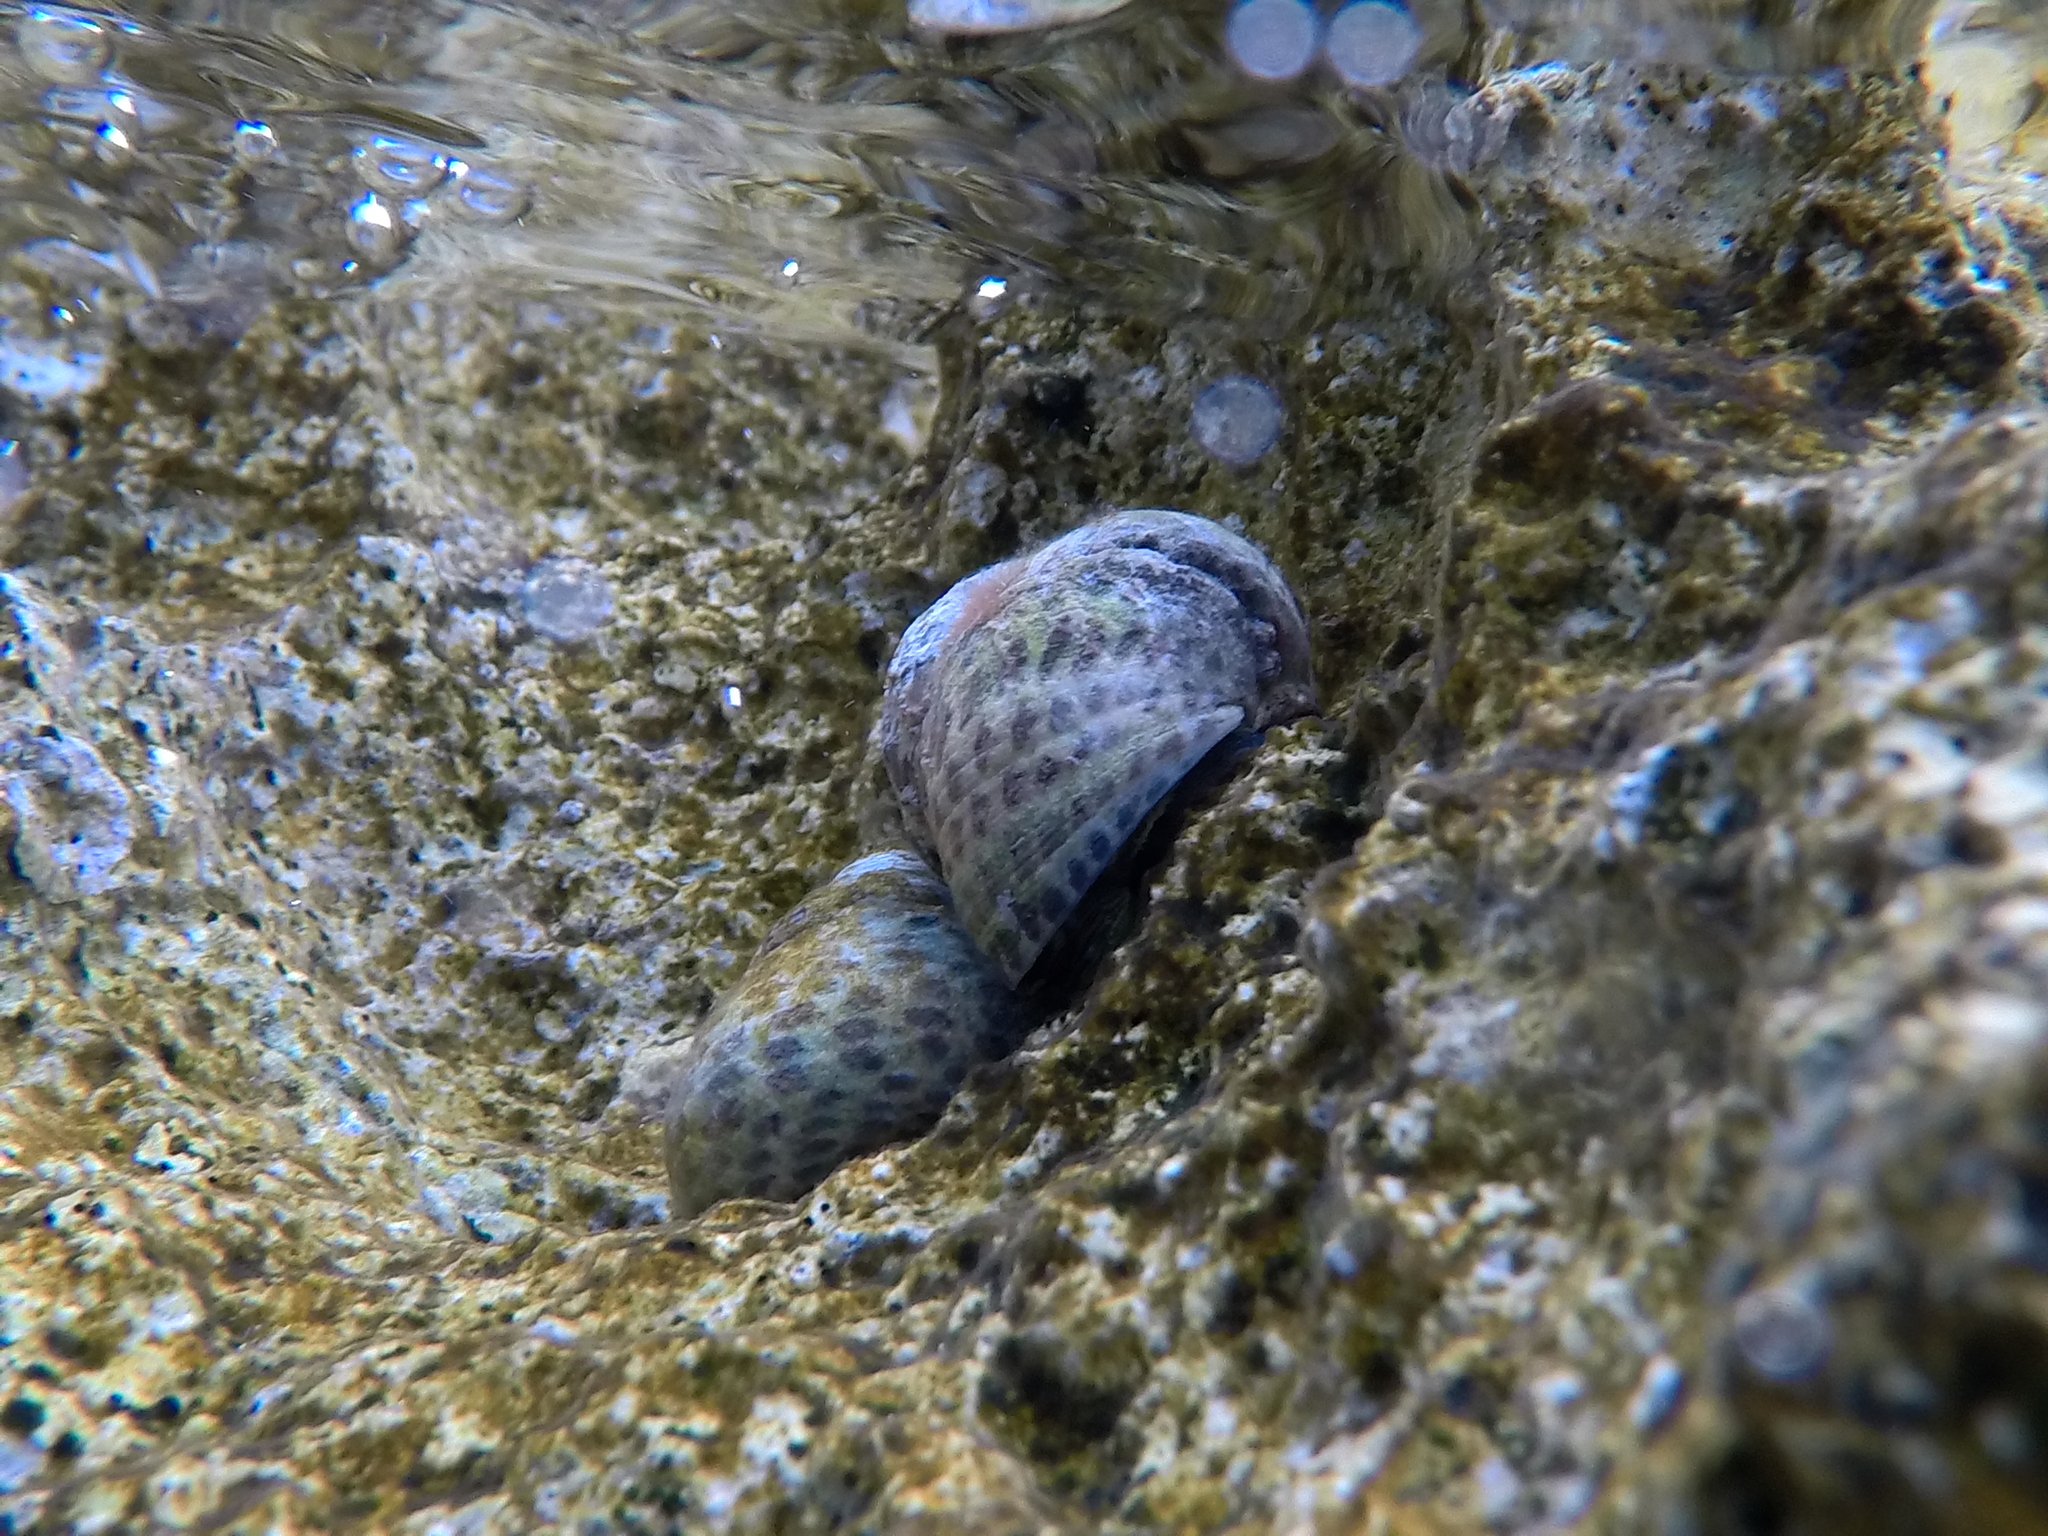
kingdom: Animalia
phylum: Mollusca
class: Gastropoda
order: Trochida
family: Trochidae
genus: Phorcus
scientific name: Phorcus turbinatus
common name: Turbinate monodont
